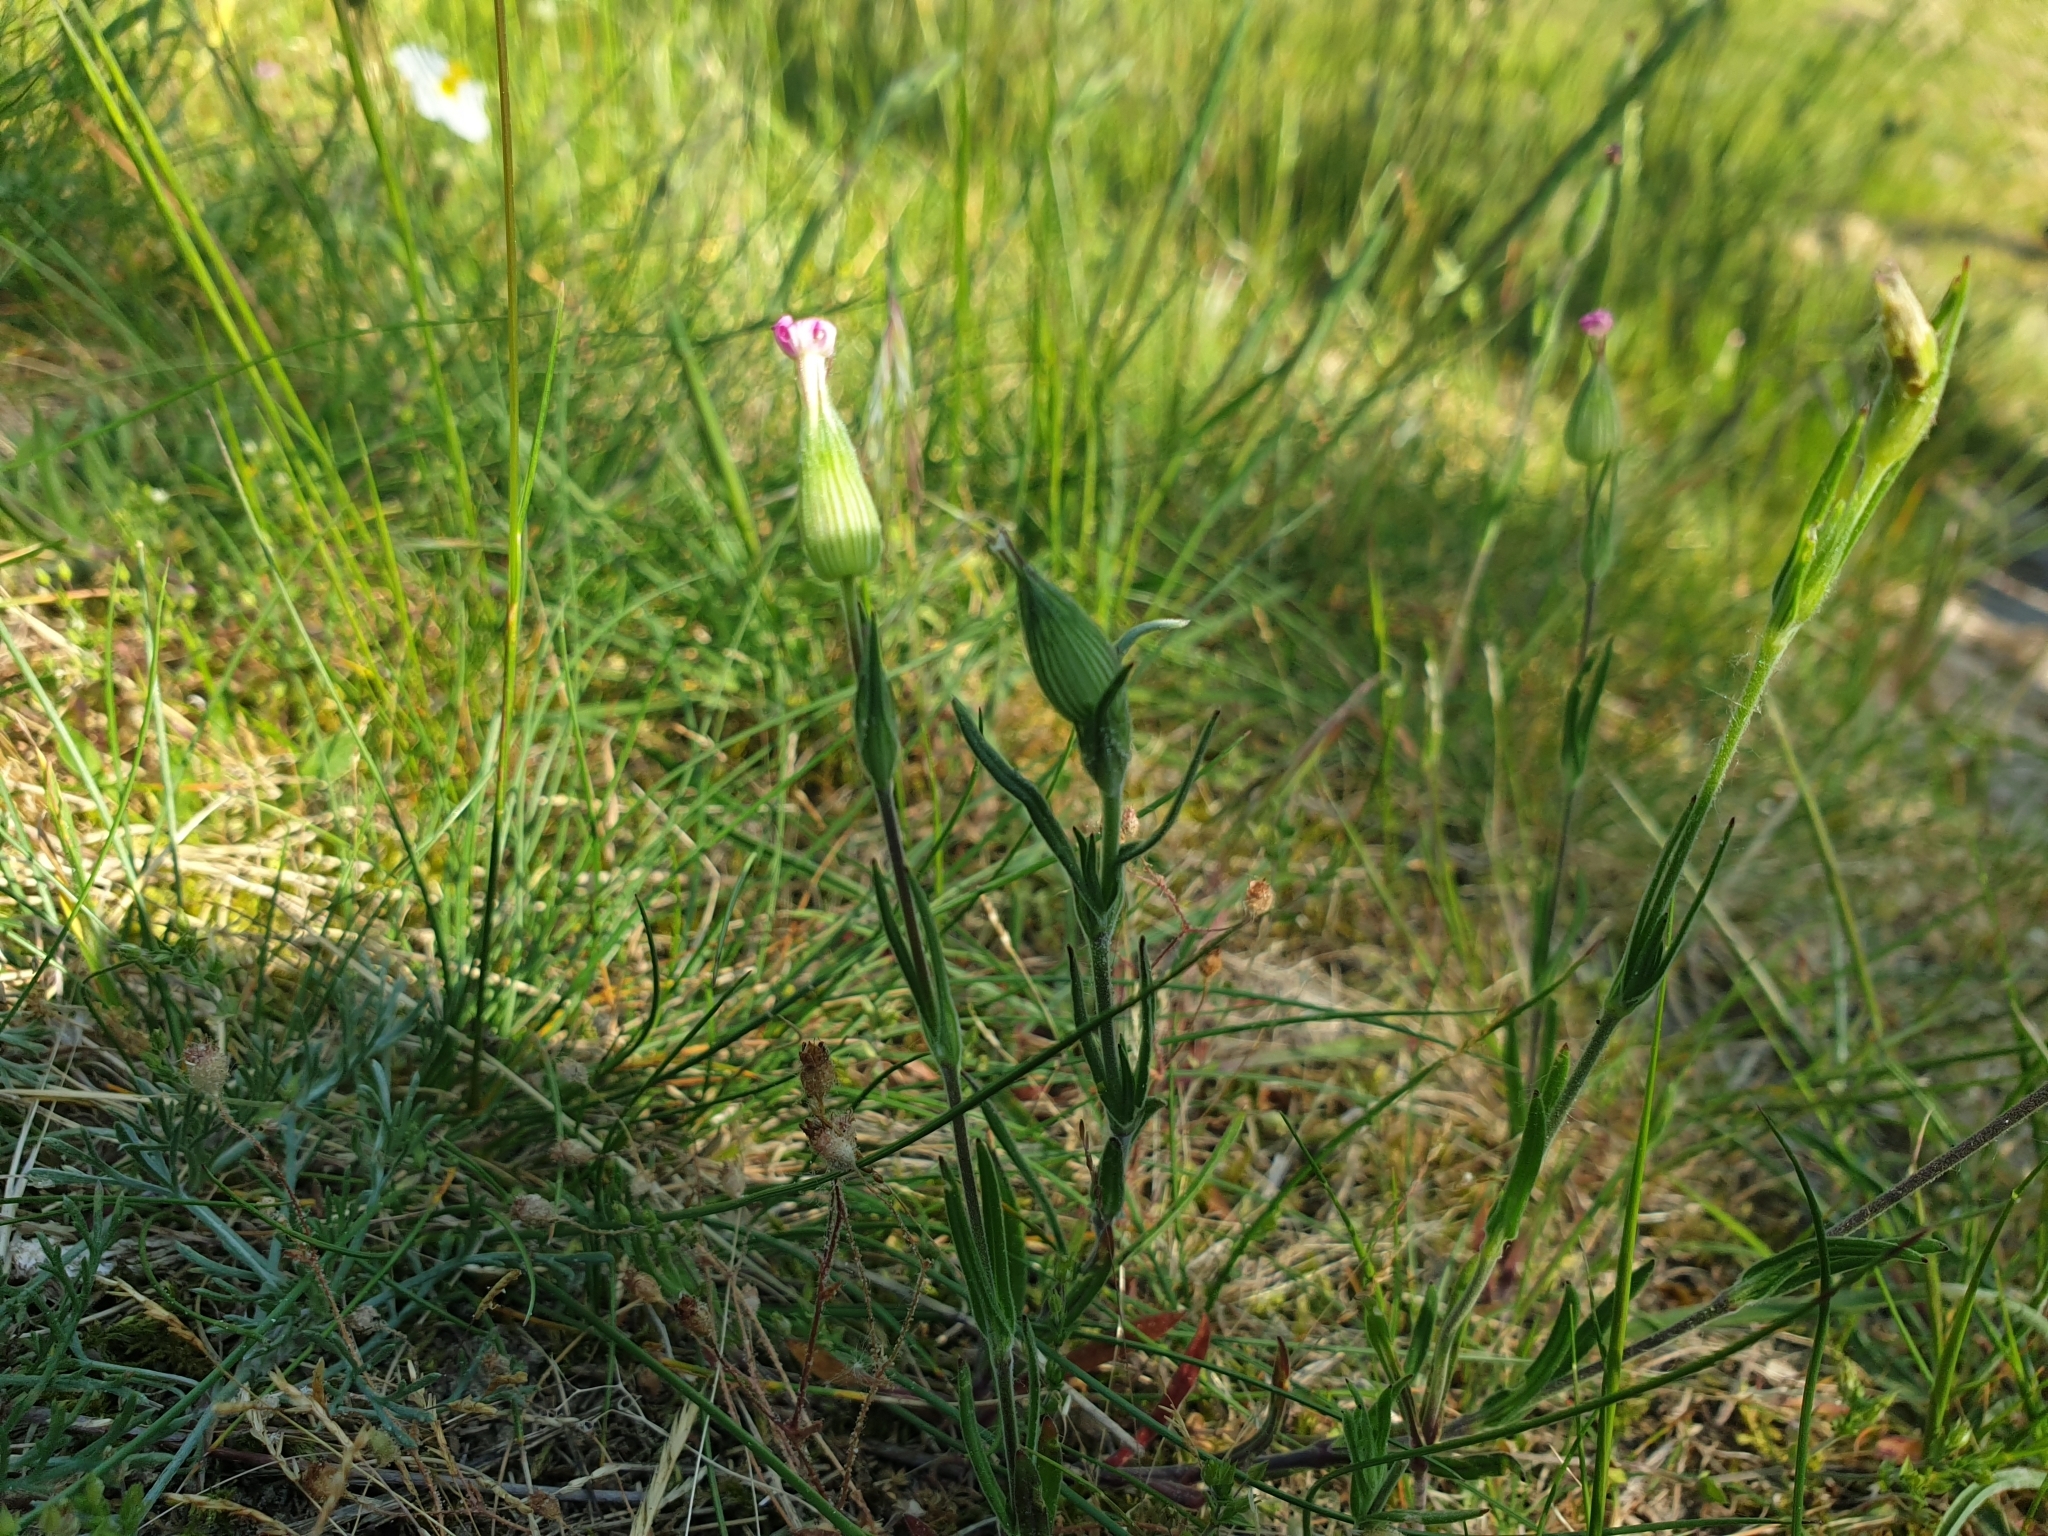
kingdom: Plantae
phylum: Tracheophyta
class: Magnoliopsida
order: Caryophyllales
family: Caryophyllaceae
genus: Silene
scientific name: Silene conica
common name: Sand catchfly
